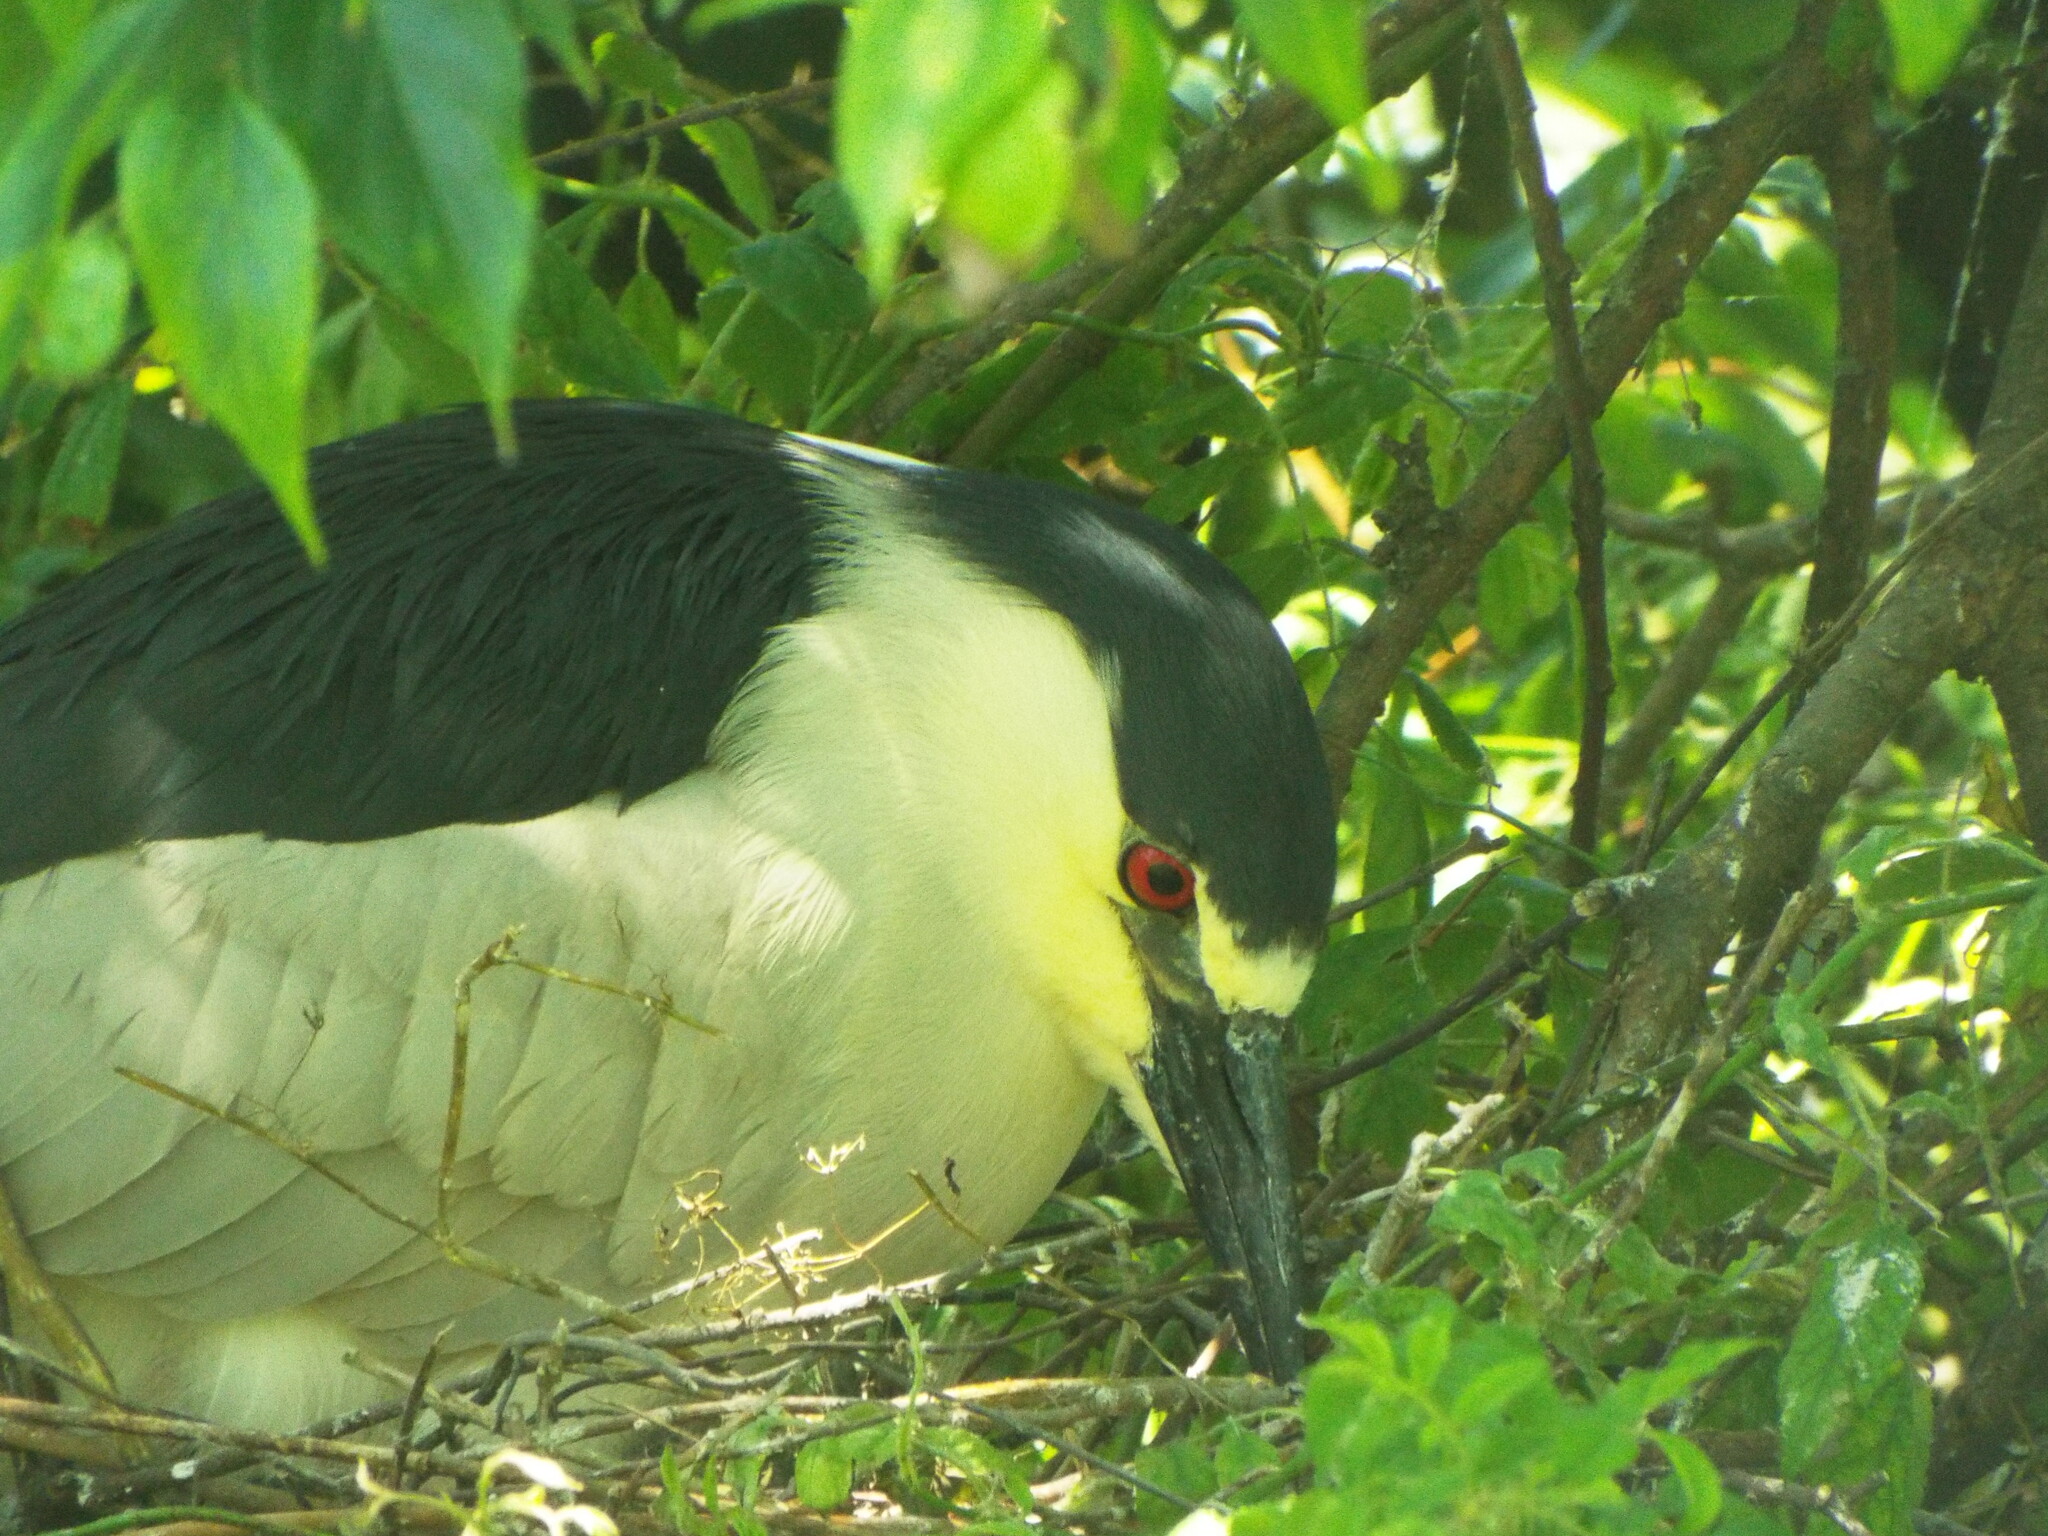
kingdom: Animalia
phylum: Chordata
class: Aves
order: Pelecaniformes
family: Ardeidae
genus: Nycticorax
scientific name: Nycticorax nycticorax
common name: Black-crowned night heron
